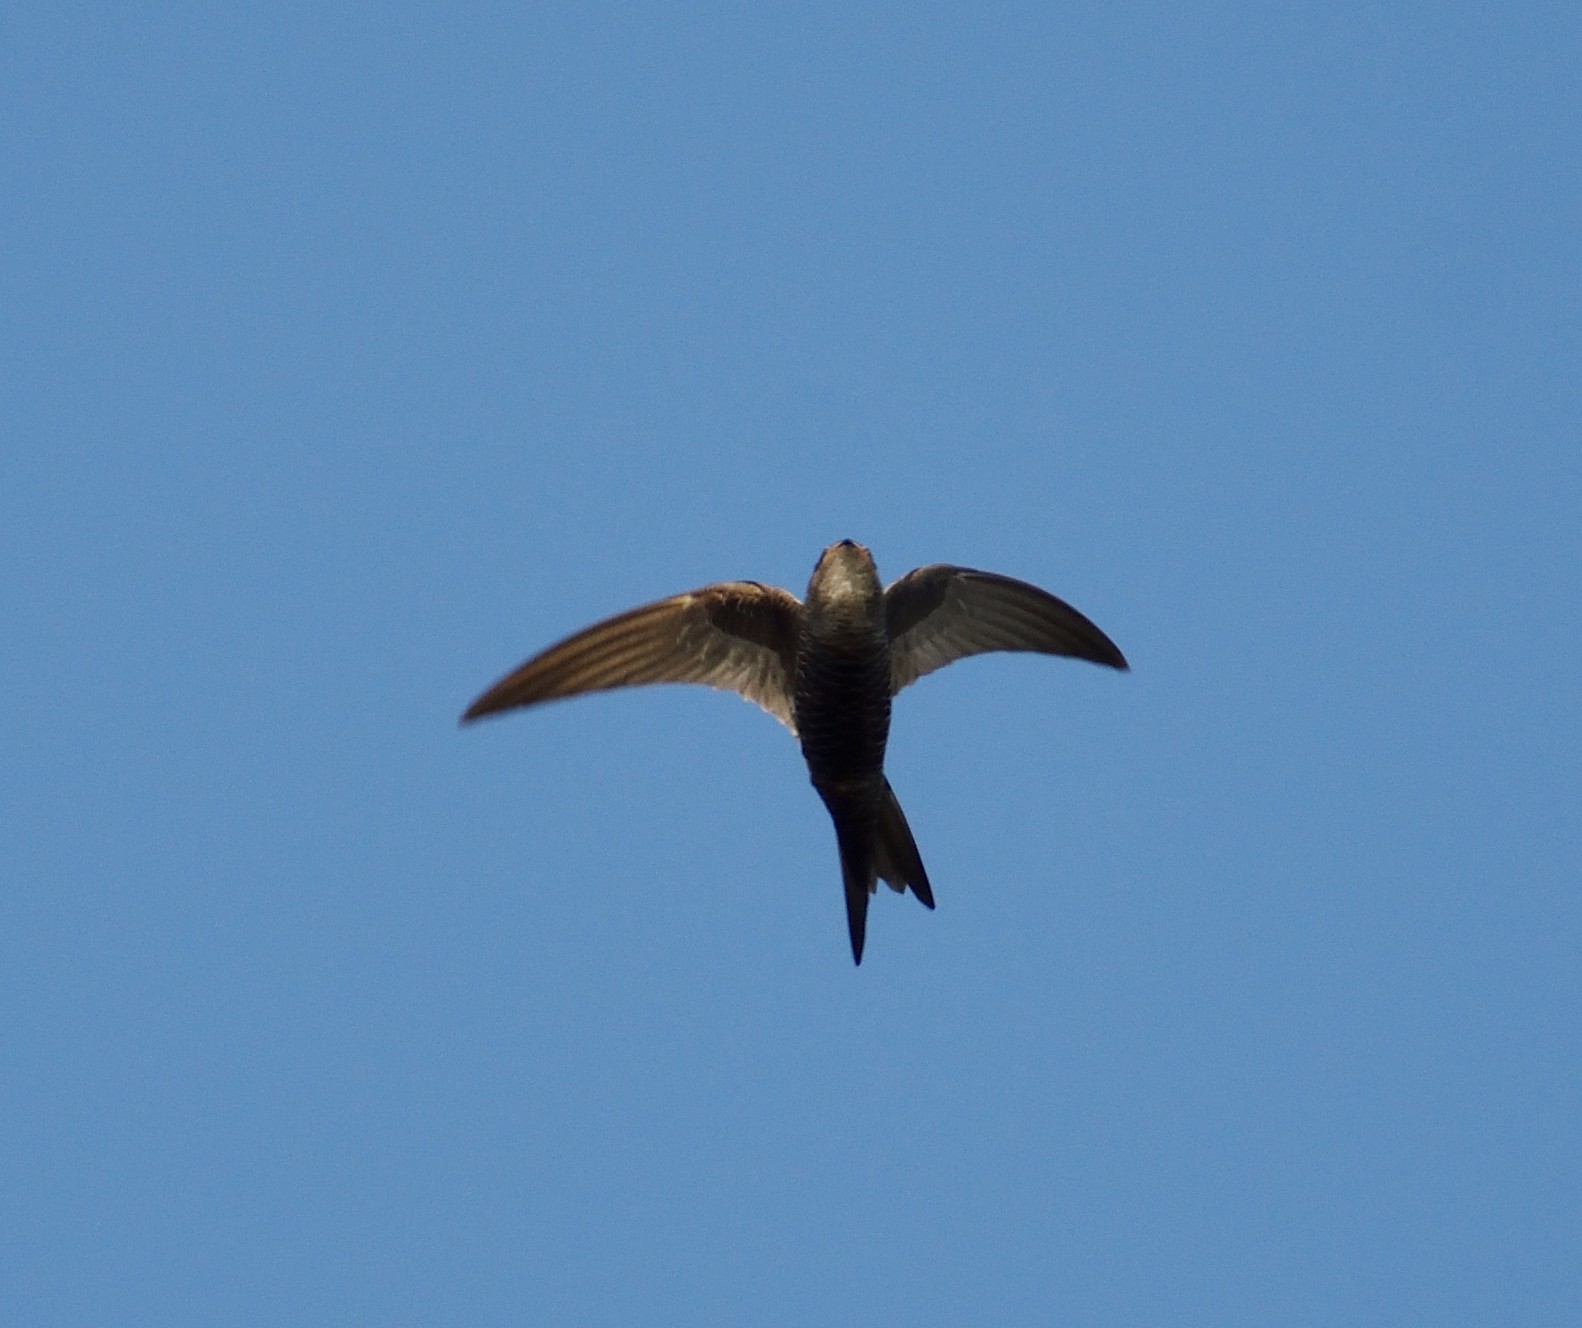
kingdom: Animalia
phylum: Chordata
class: Aves
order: Apodiformes
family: Apodidae
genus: Apus
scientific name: Apus leuconyx
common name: Blyth's swift
